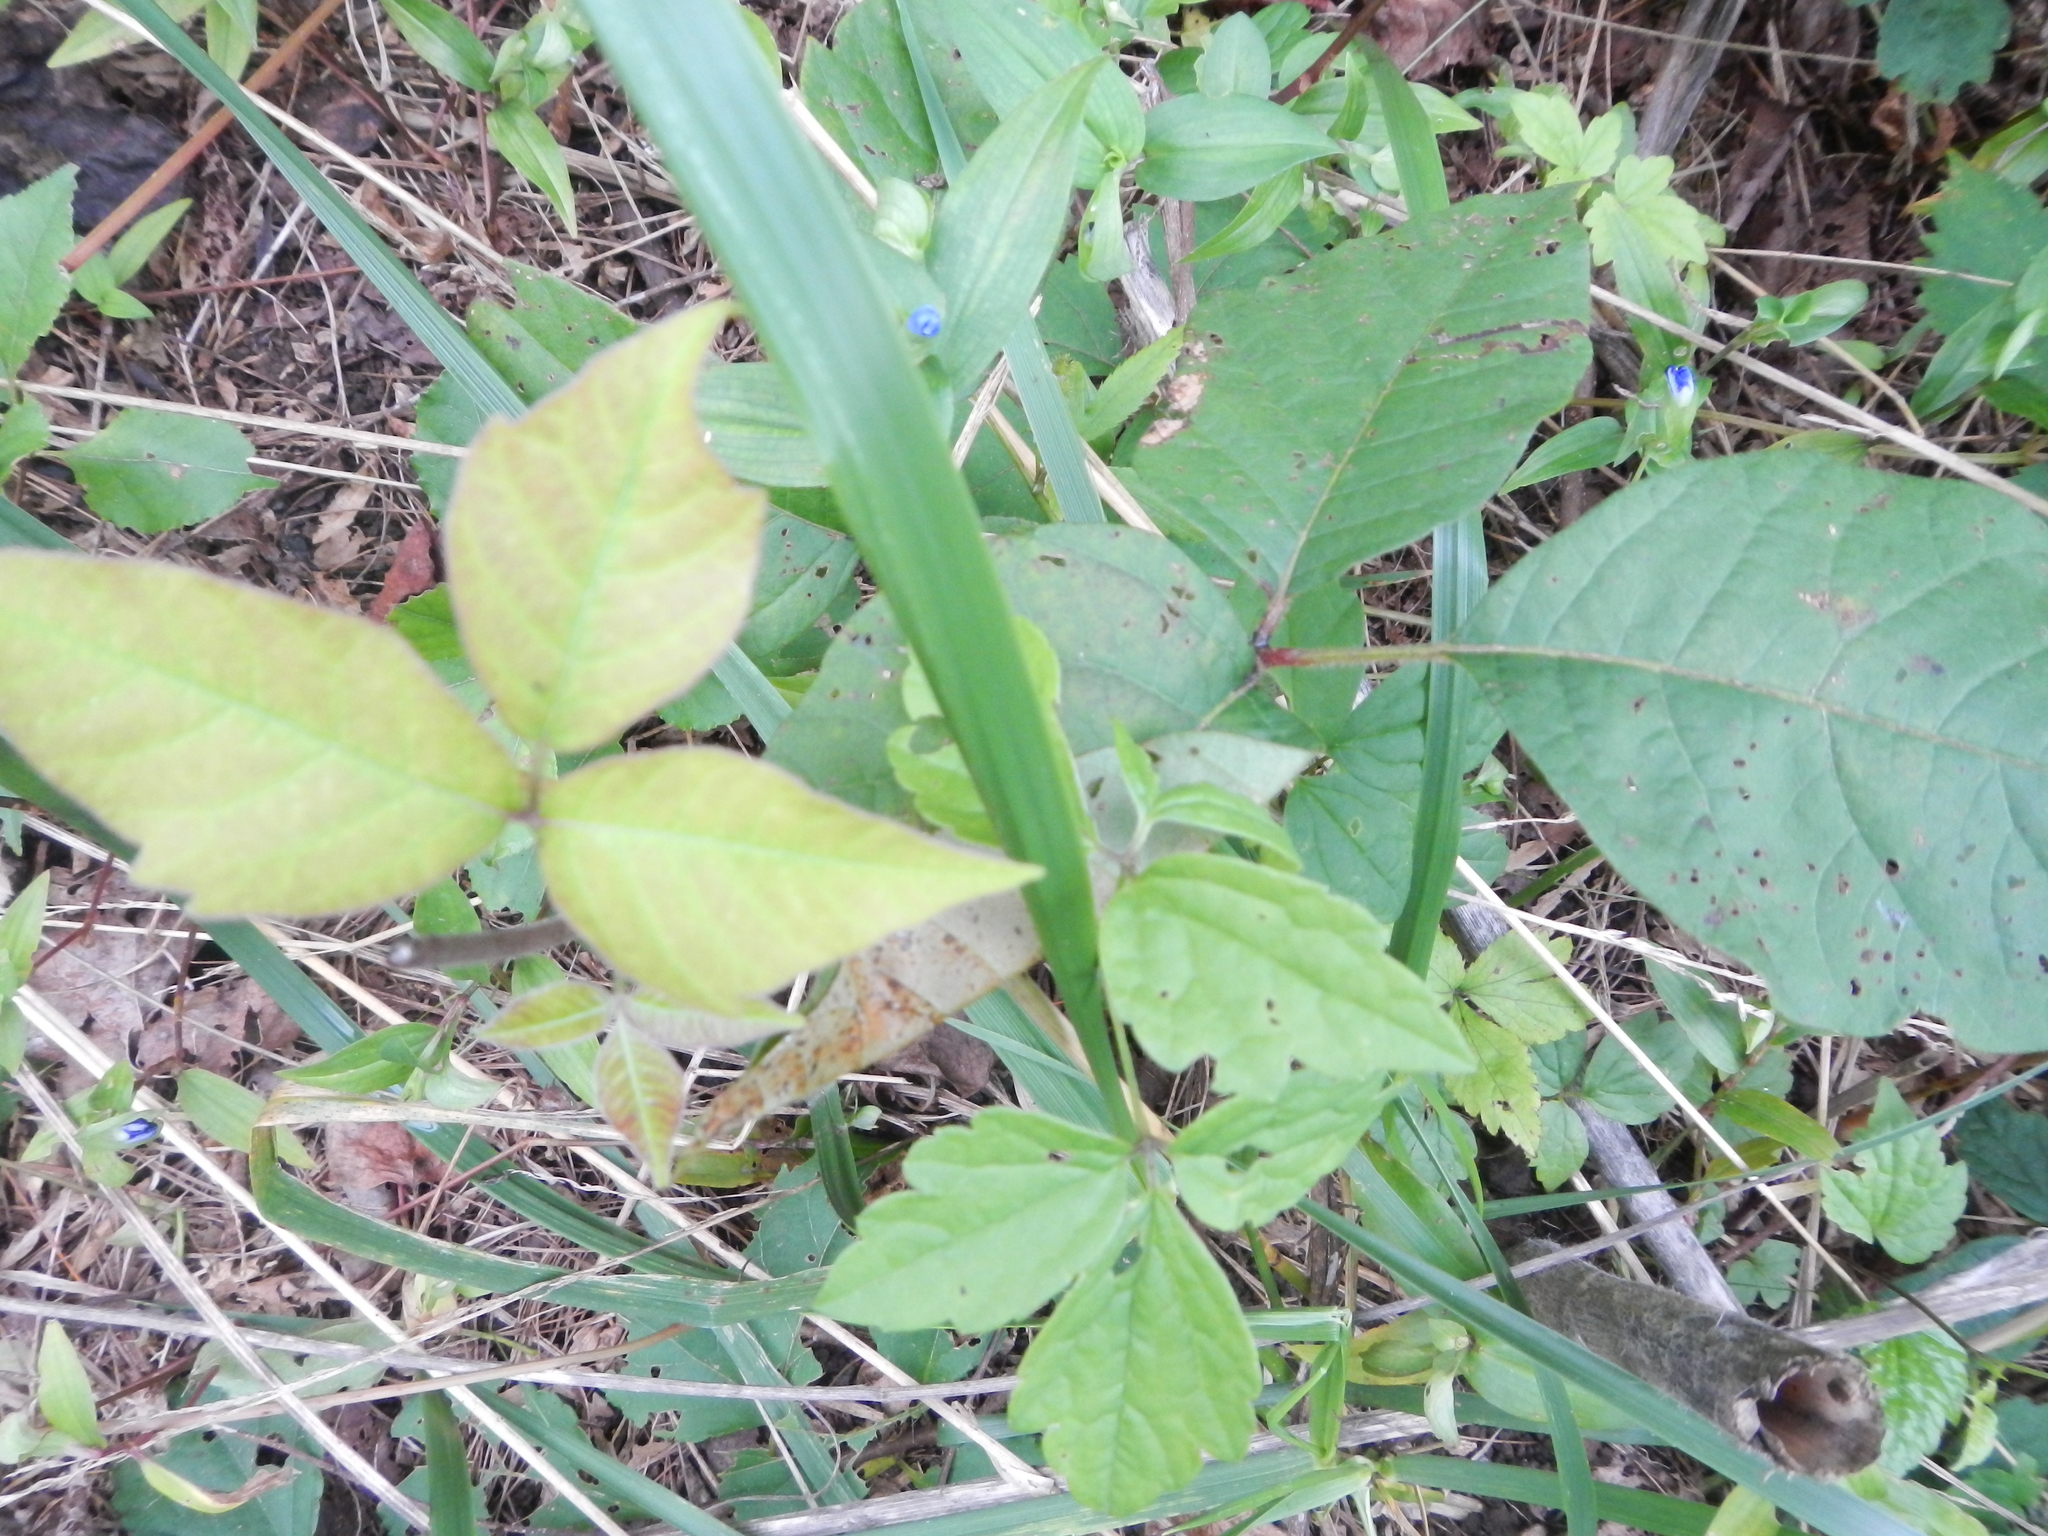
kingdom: Plantae
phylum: Tracheophyta
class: Magnoliopsida
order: Sapindales
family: Anacardiaceae
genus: Toxicodendron
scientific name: Toxicodendron radicans
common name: Poison ivy
